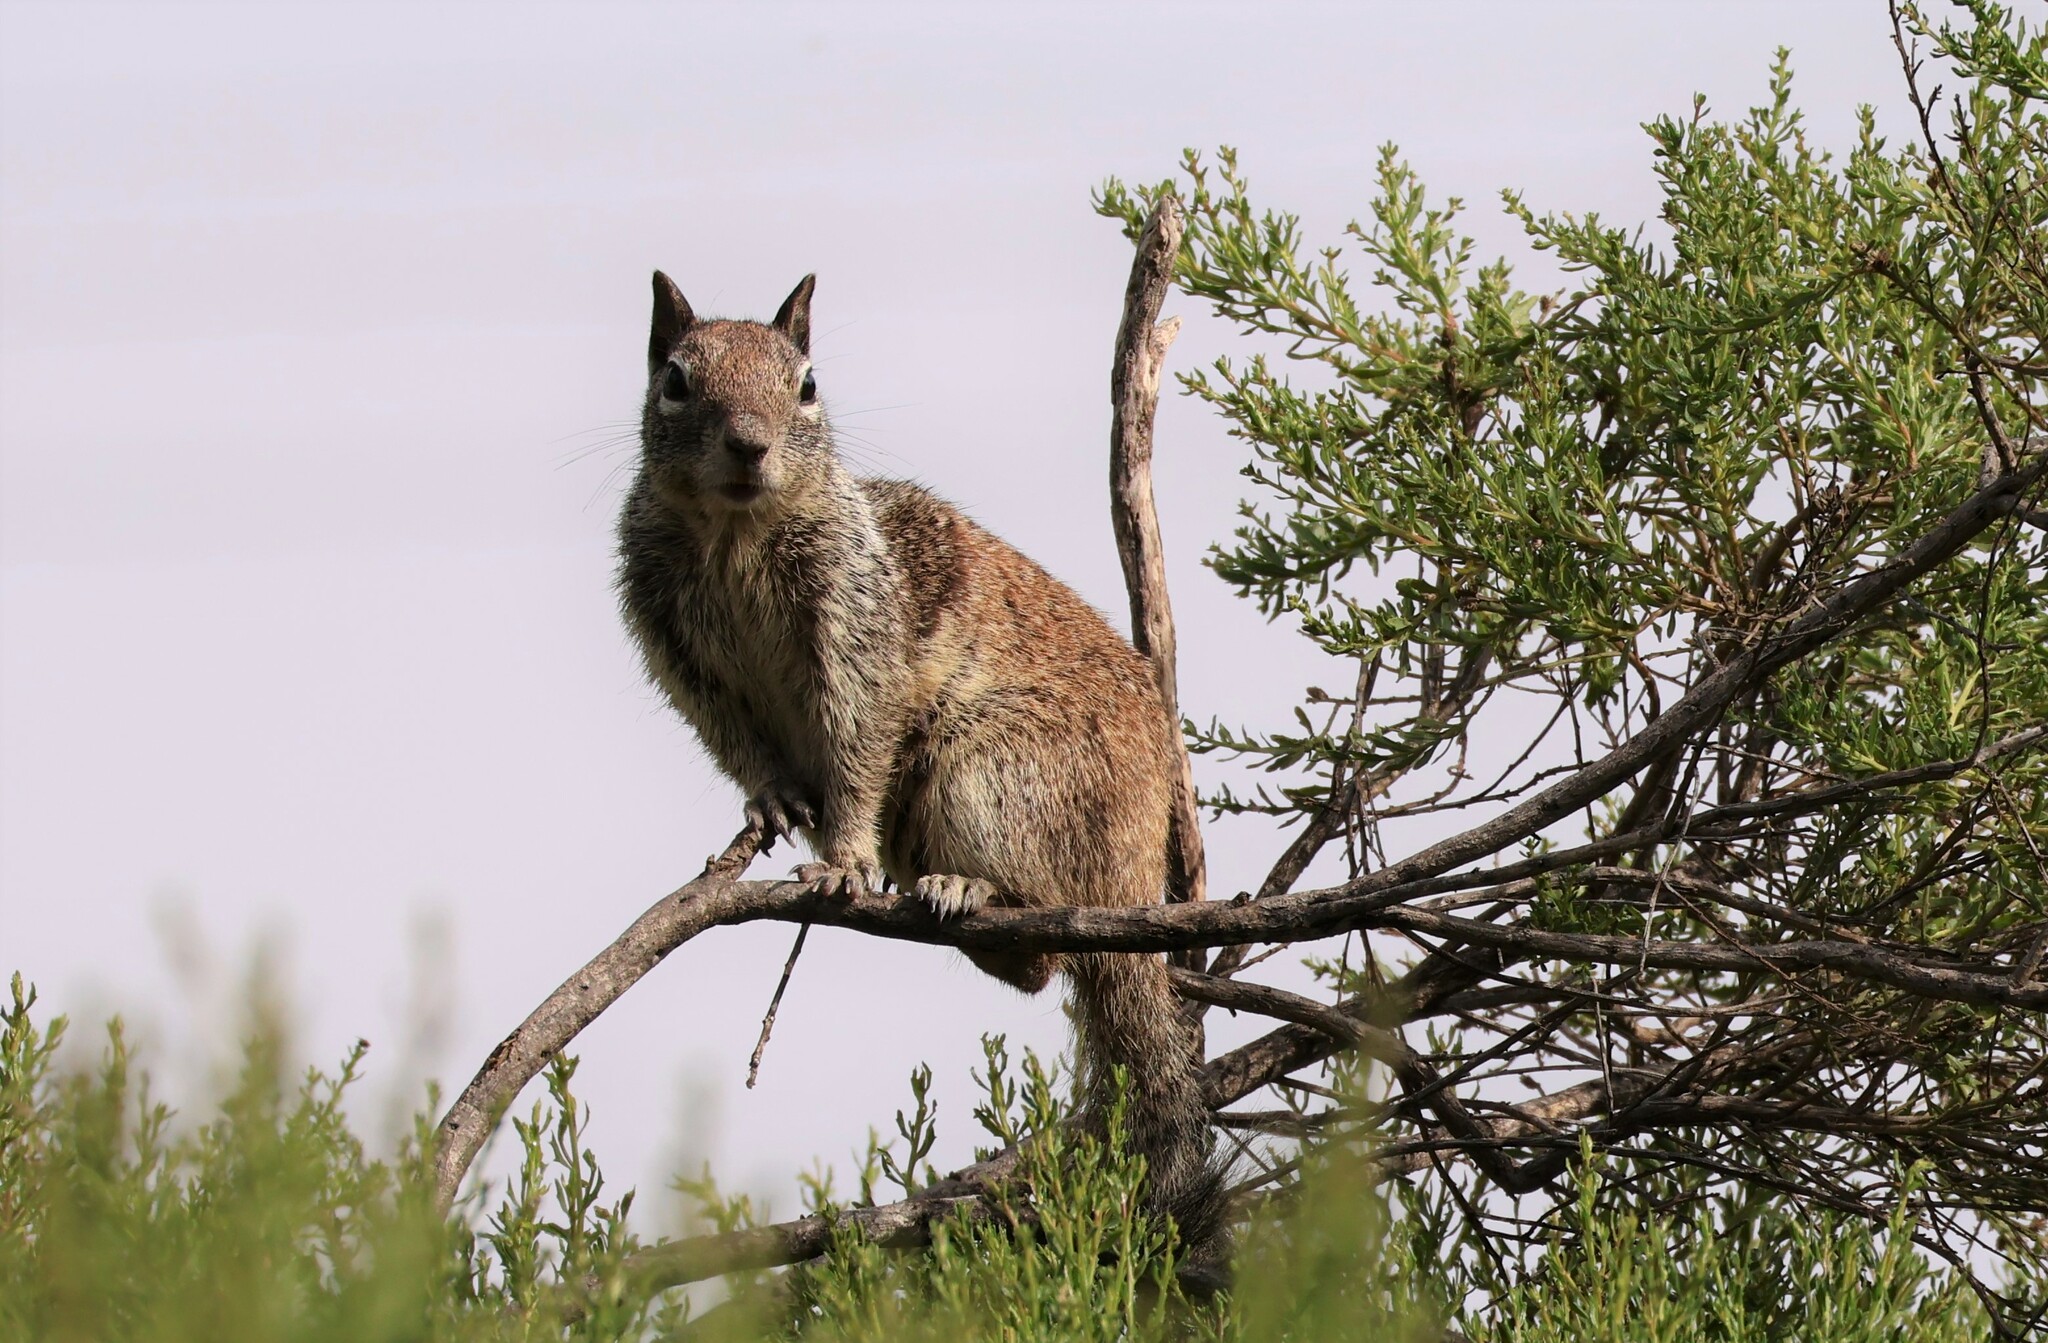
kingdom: Animalia
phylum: Chordata
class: Mammalia
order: Rodentia
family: Sciuridae
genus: Otospermophilus
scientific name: Otospermophilus beecheyi
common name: California ground squirrel
